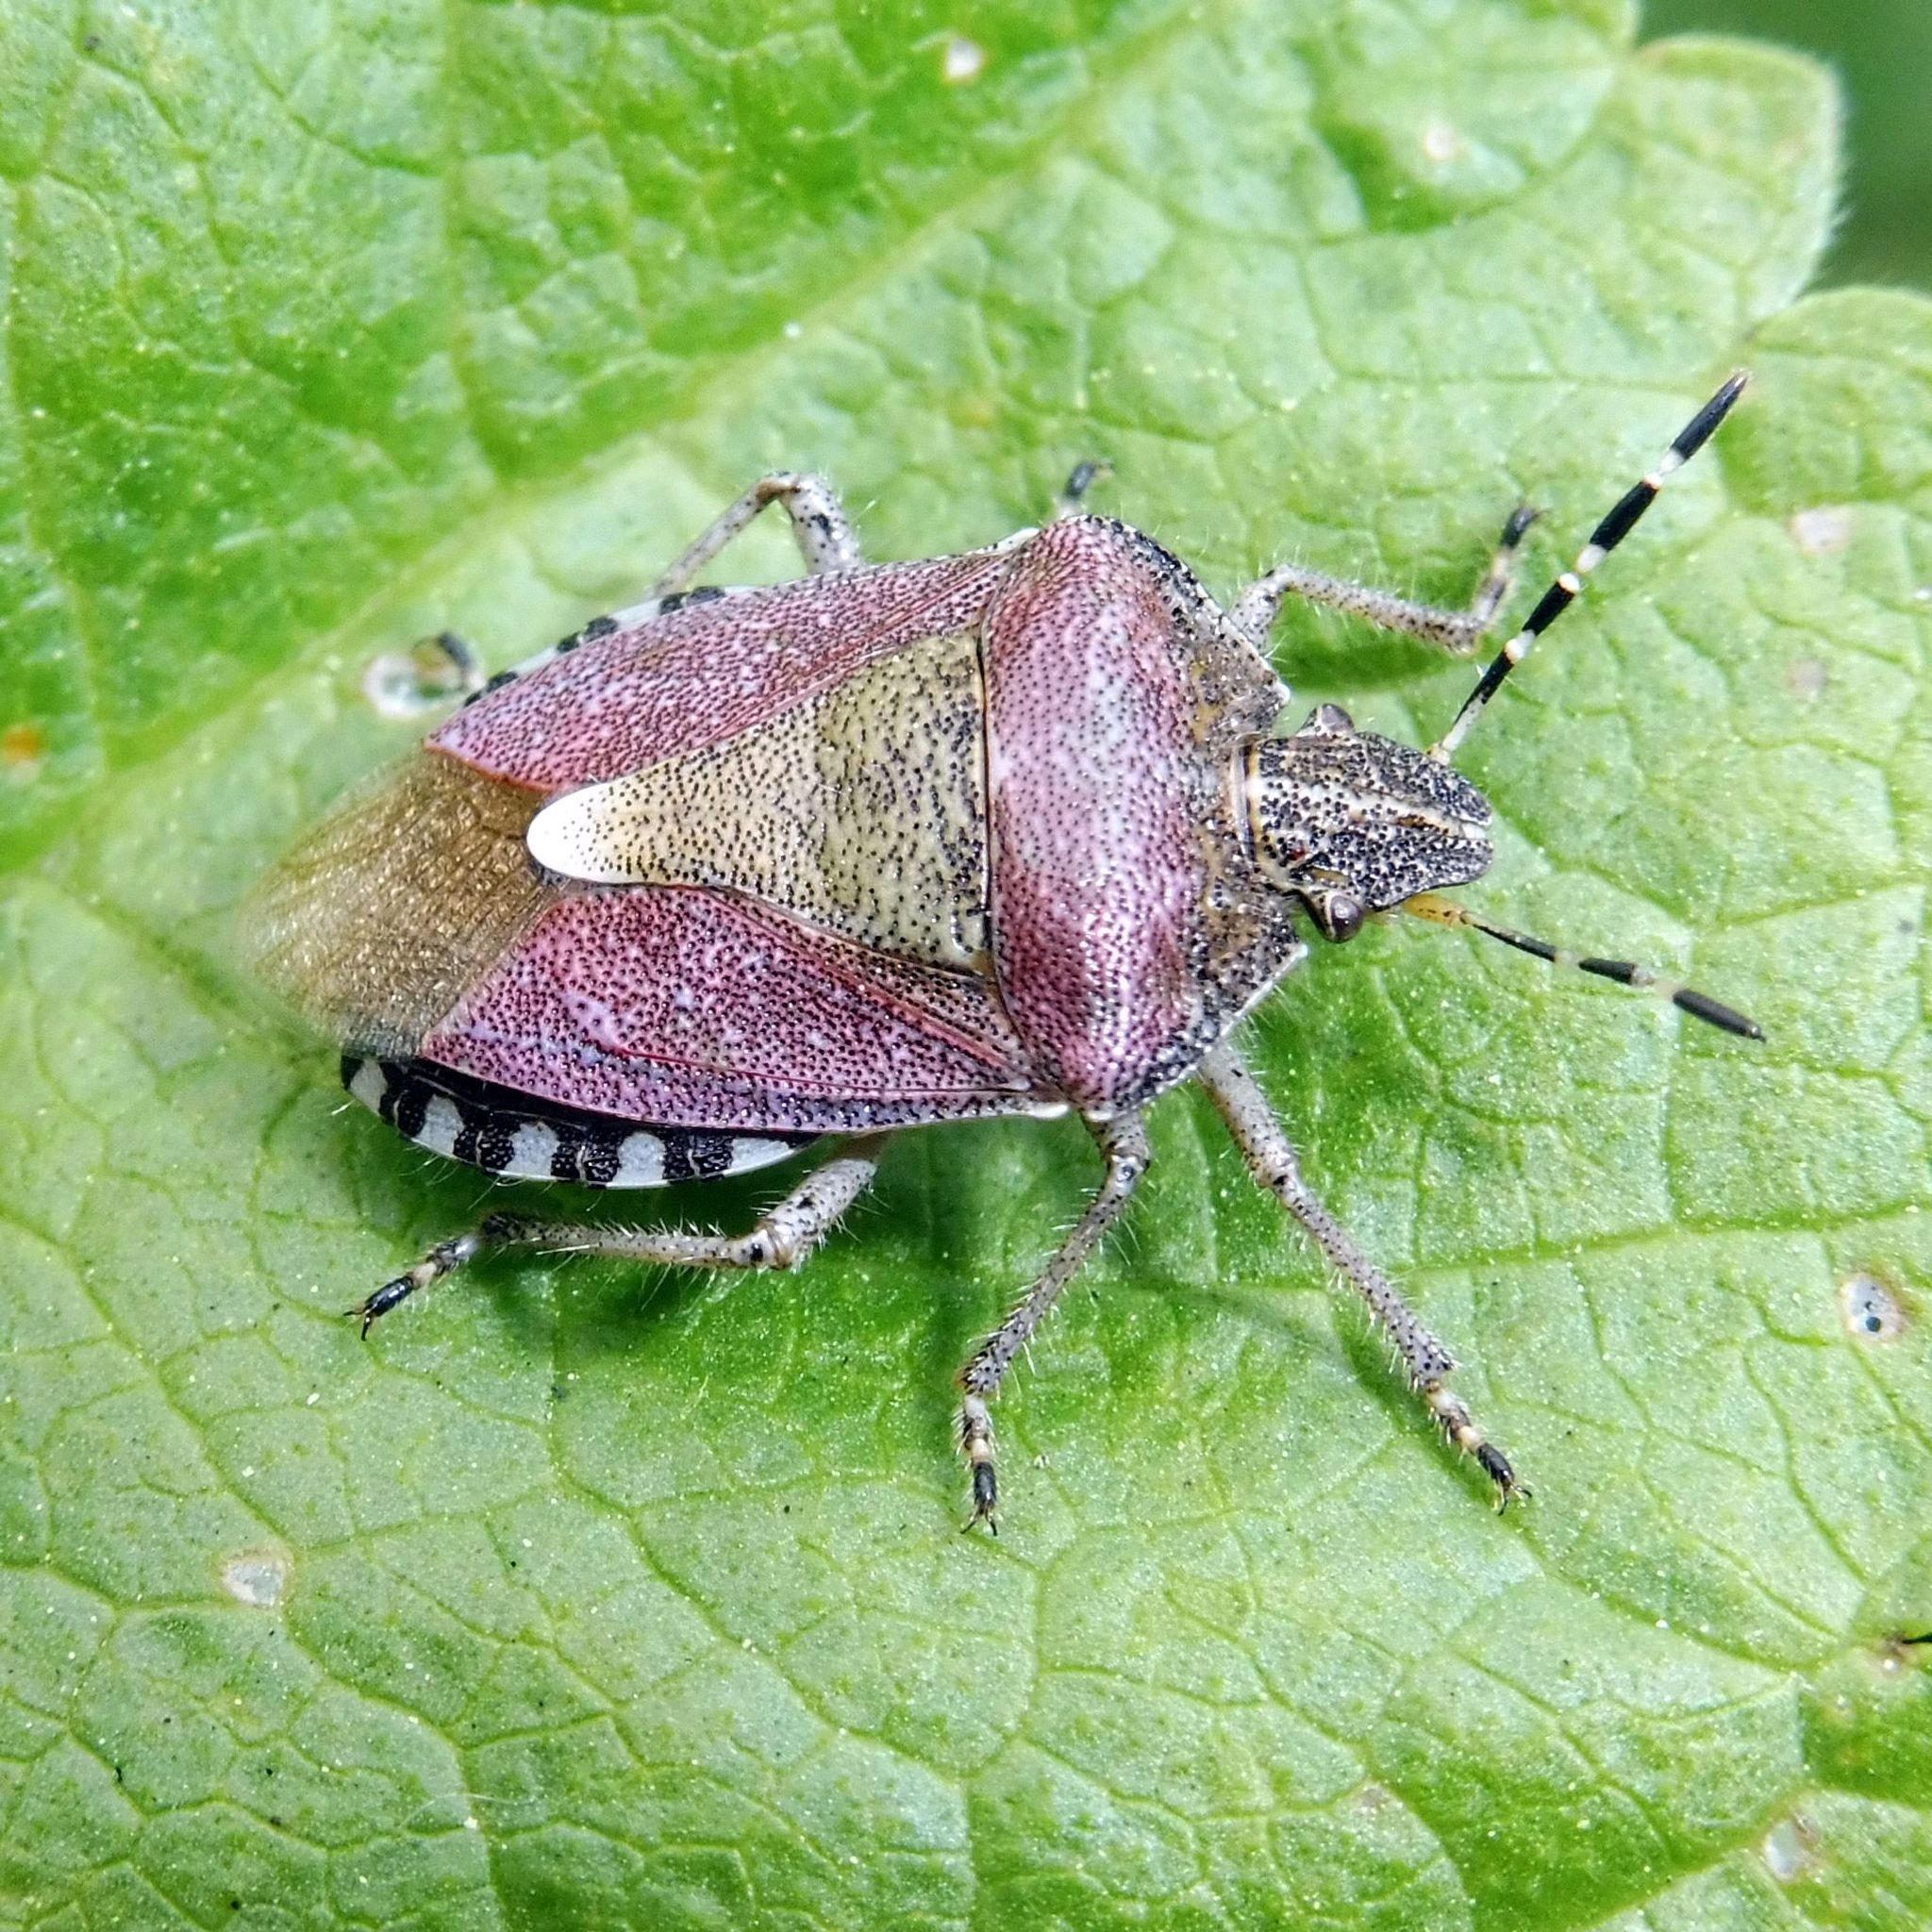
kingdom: Animalia
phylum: Arthropoda
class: Insecta
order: Hemiptera
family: Pentatomidae
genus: Dolycoris
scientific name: Dolycoris baccarum
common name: Sloe bug
